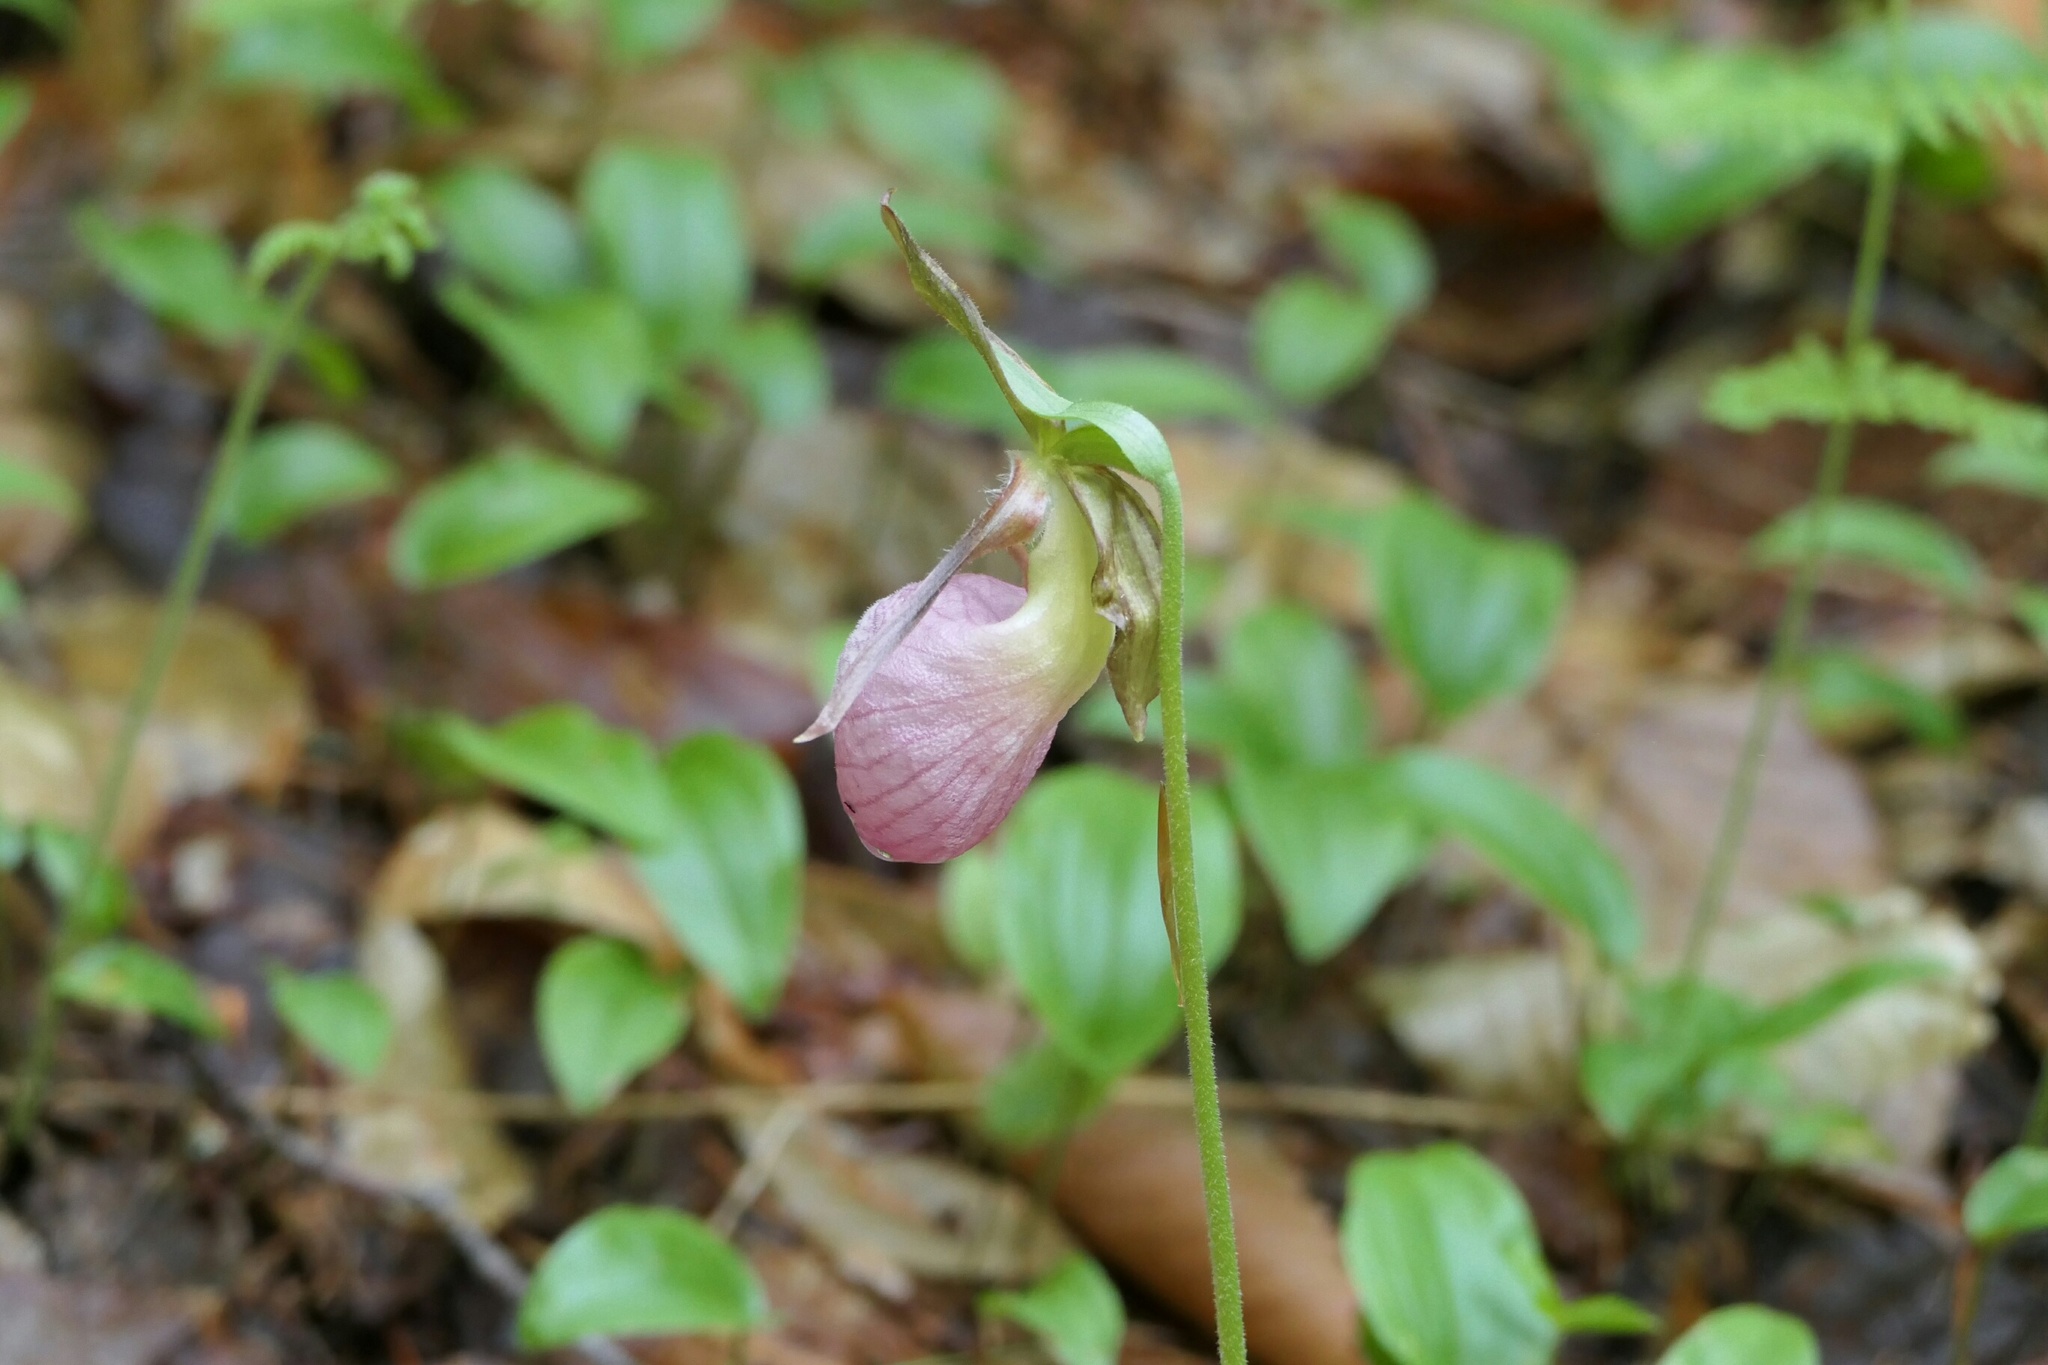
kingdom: Plantae
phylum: Tracheophyta
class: Liliopsida
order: Asparagales
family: Orchidaceae
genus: Cypripedium
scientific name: Cypripedium acaule
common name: Pink lady's-slipper
